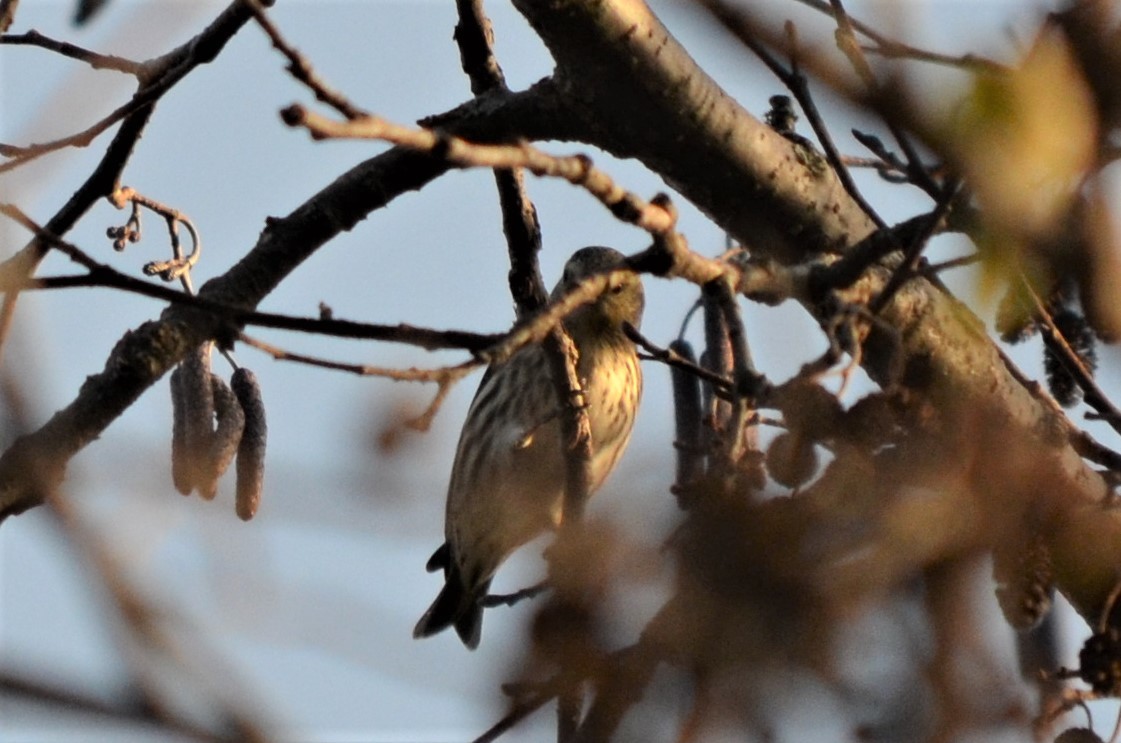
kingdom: Animalia
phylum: Chordata
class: Aves
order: Passeriformes
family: Fringillidae
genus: Spinus
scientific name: Spinus spinus
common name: Eurasian siskin
